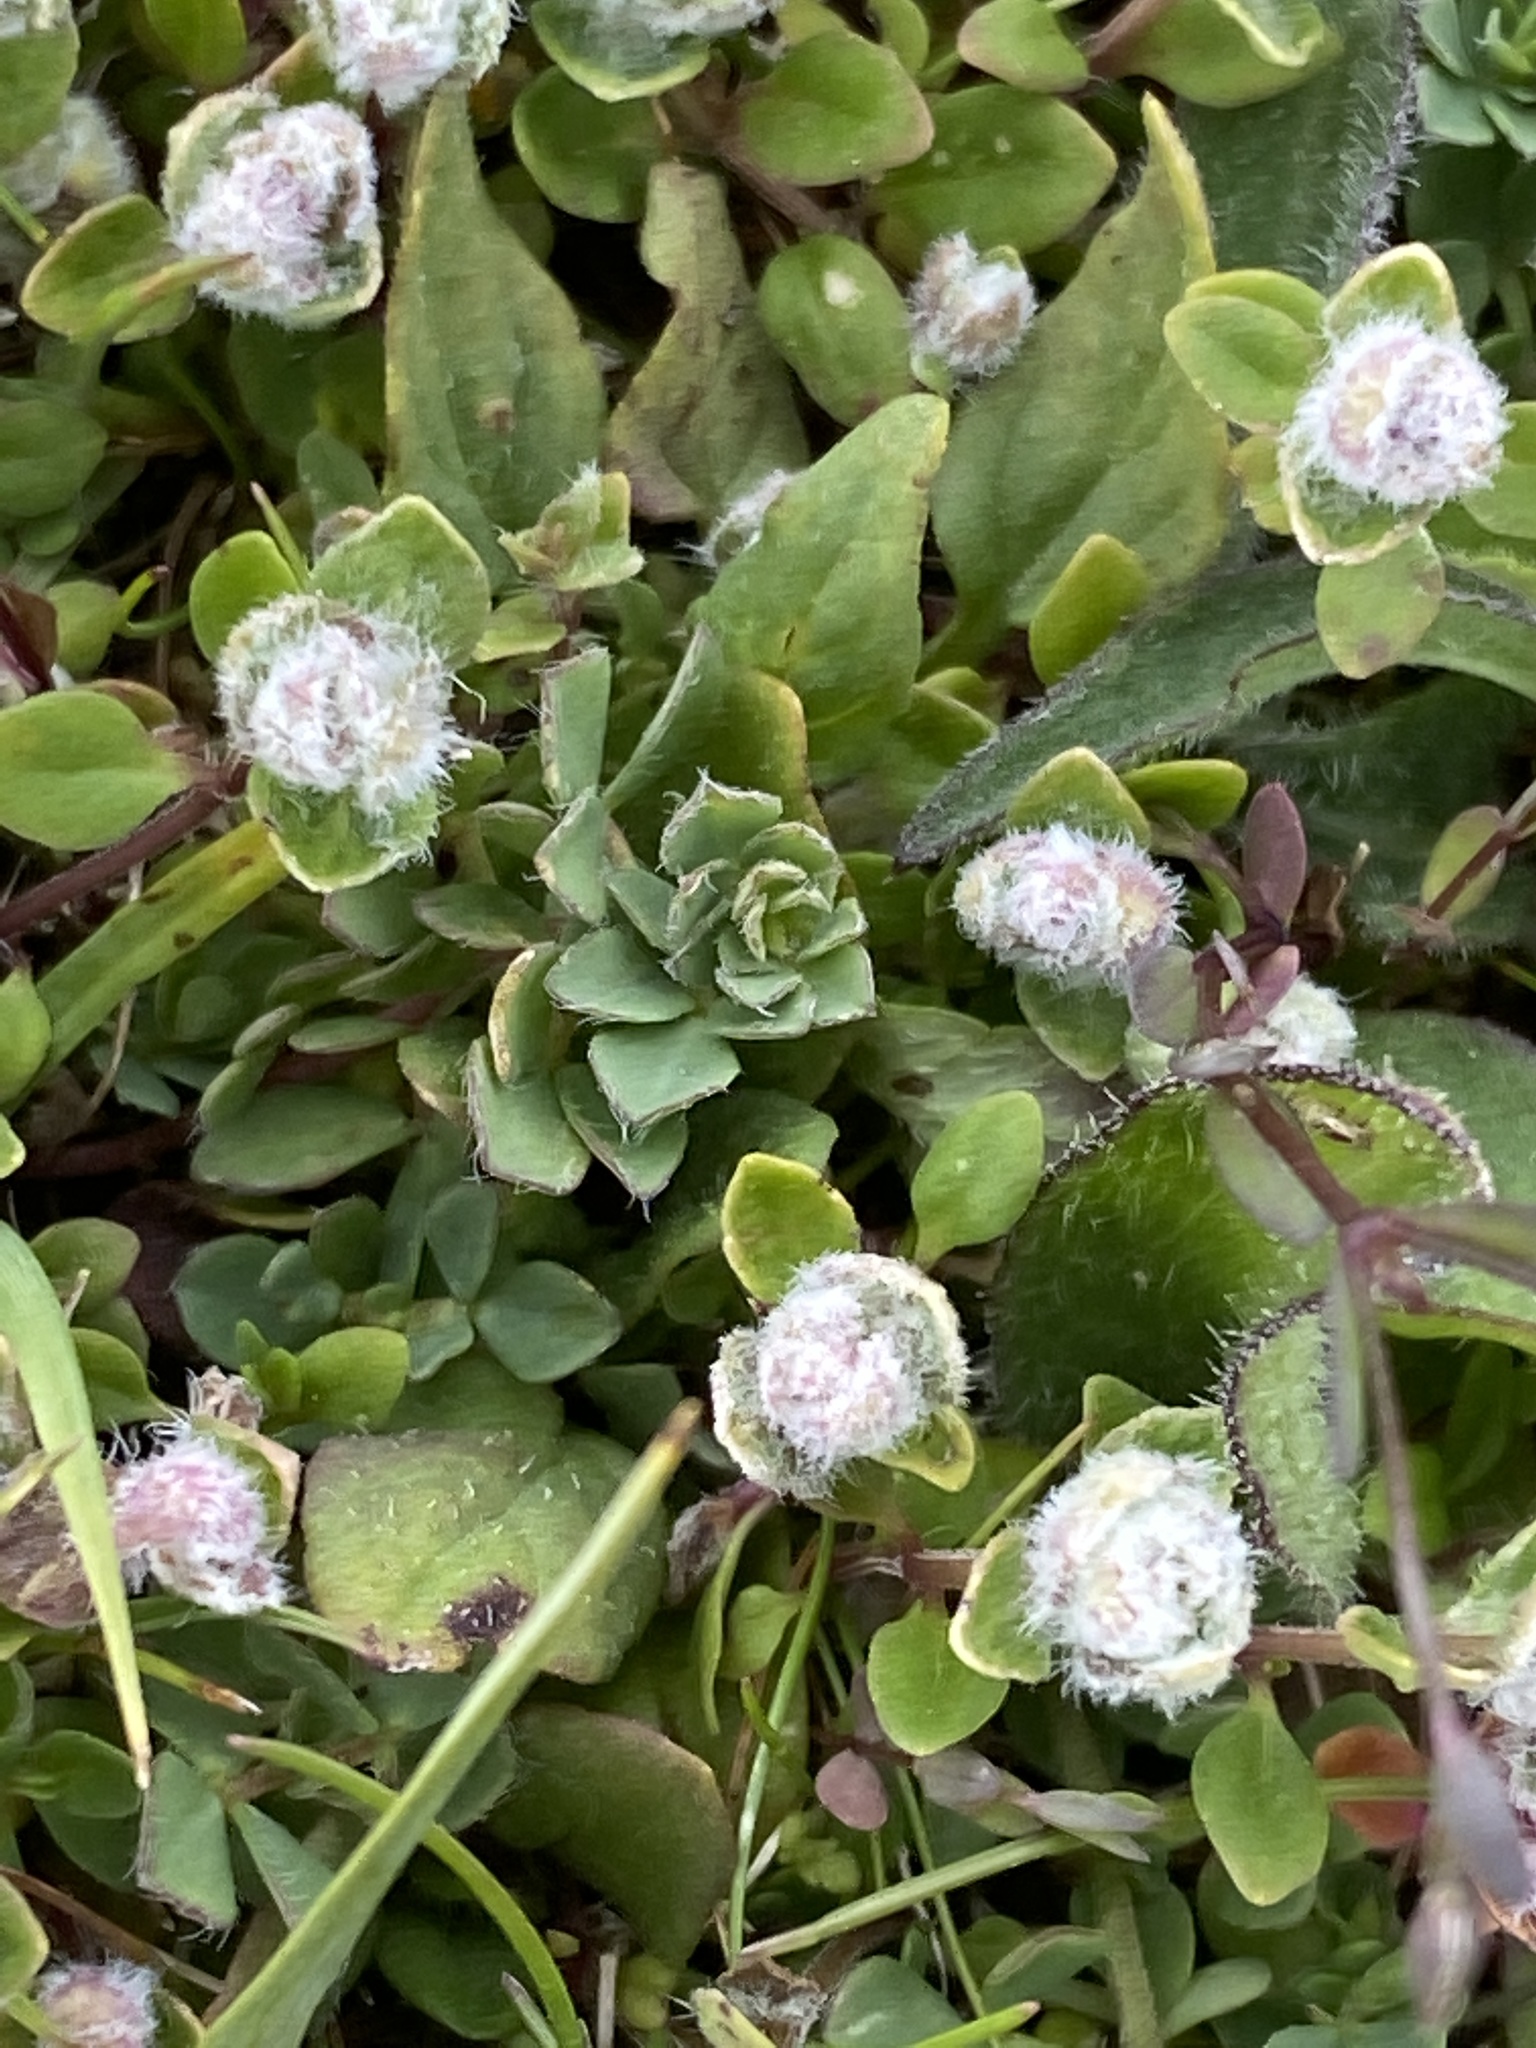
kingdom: Animalia
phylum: Arthropoda
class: Arachnida
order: Trombidiformes
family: Eriophyidae
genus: Aceria
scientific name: Aceria thomasi
